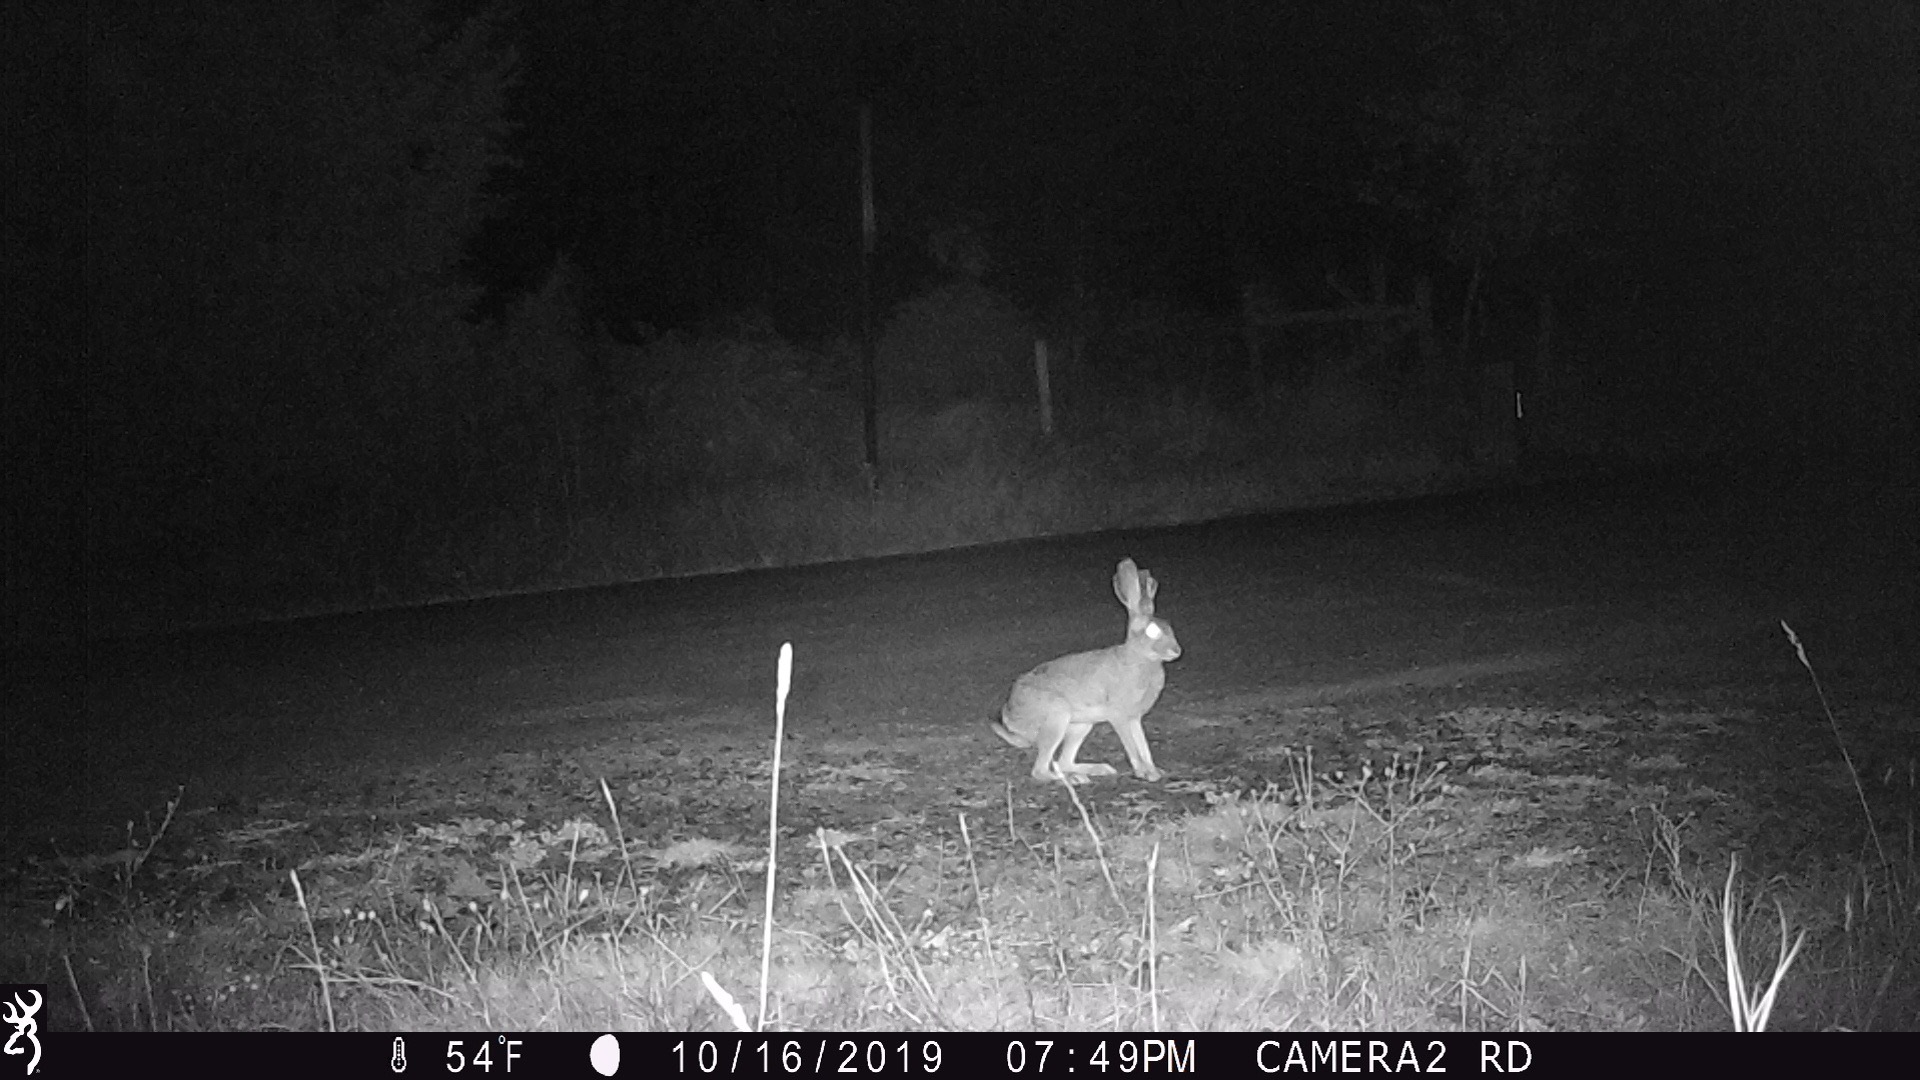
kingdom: Animalia
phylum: Chordata
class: Mammalia
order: Lagomorpha
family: Leporidae
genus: Lepus
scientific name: Lepus californicus
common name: Black-tailed jackrabbit
